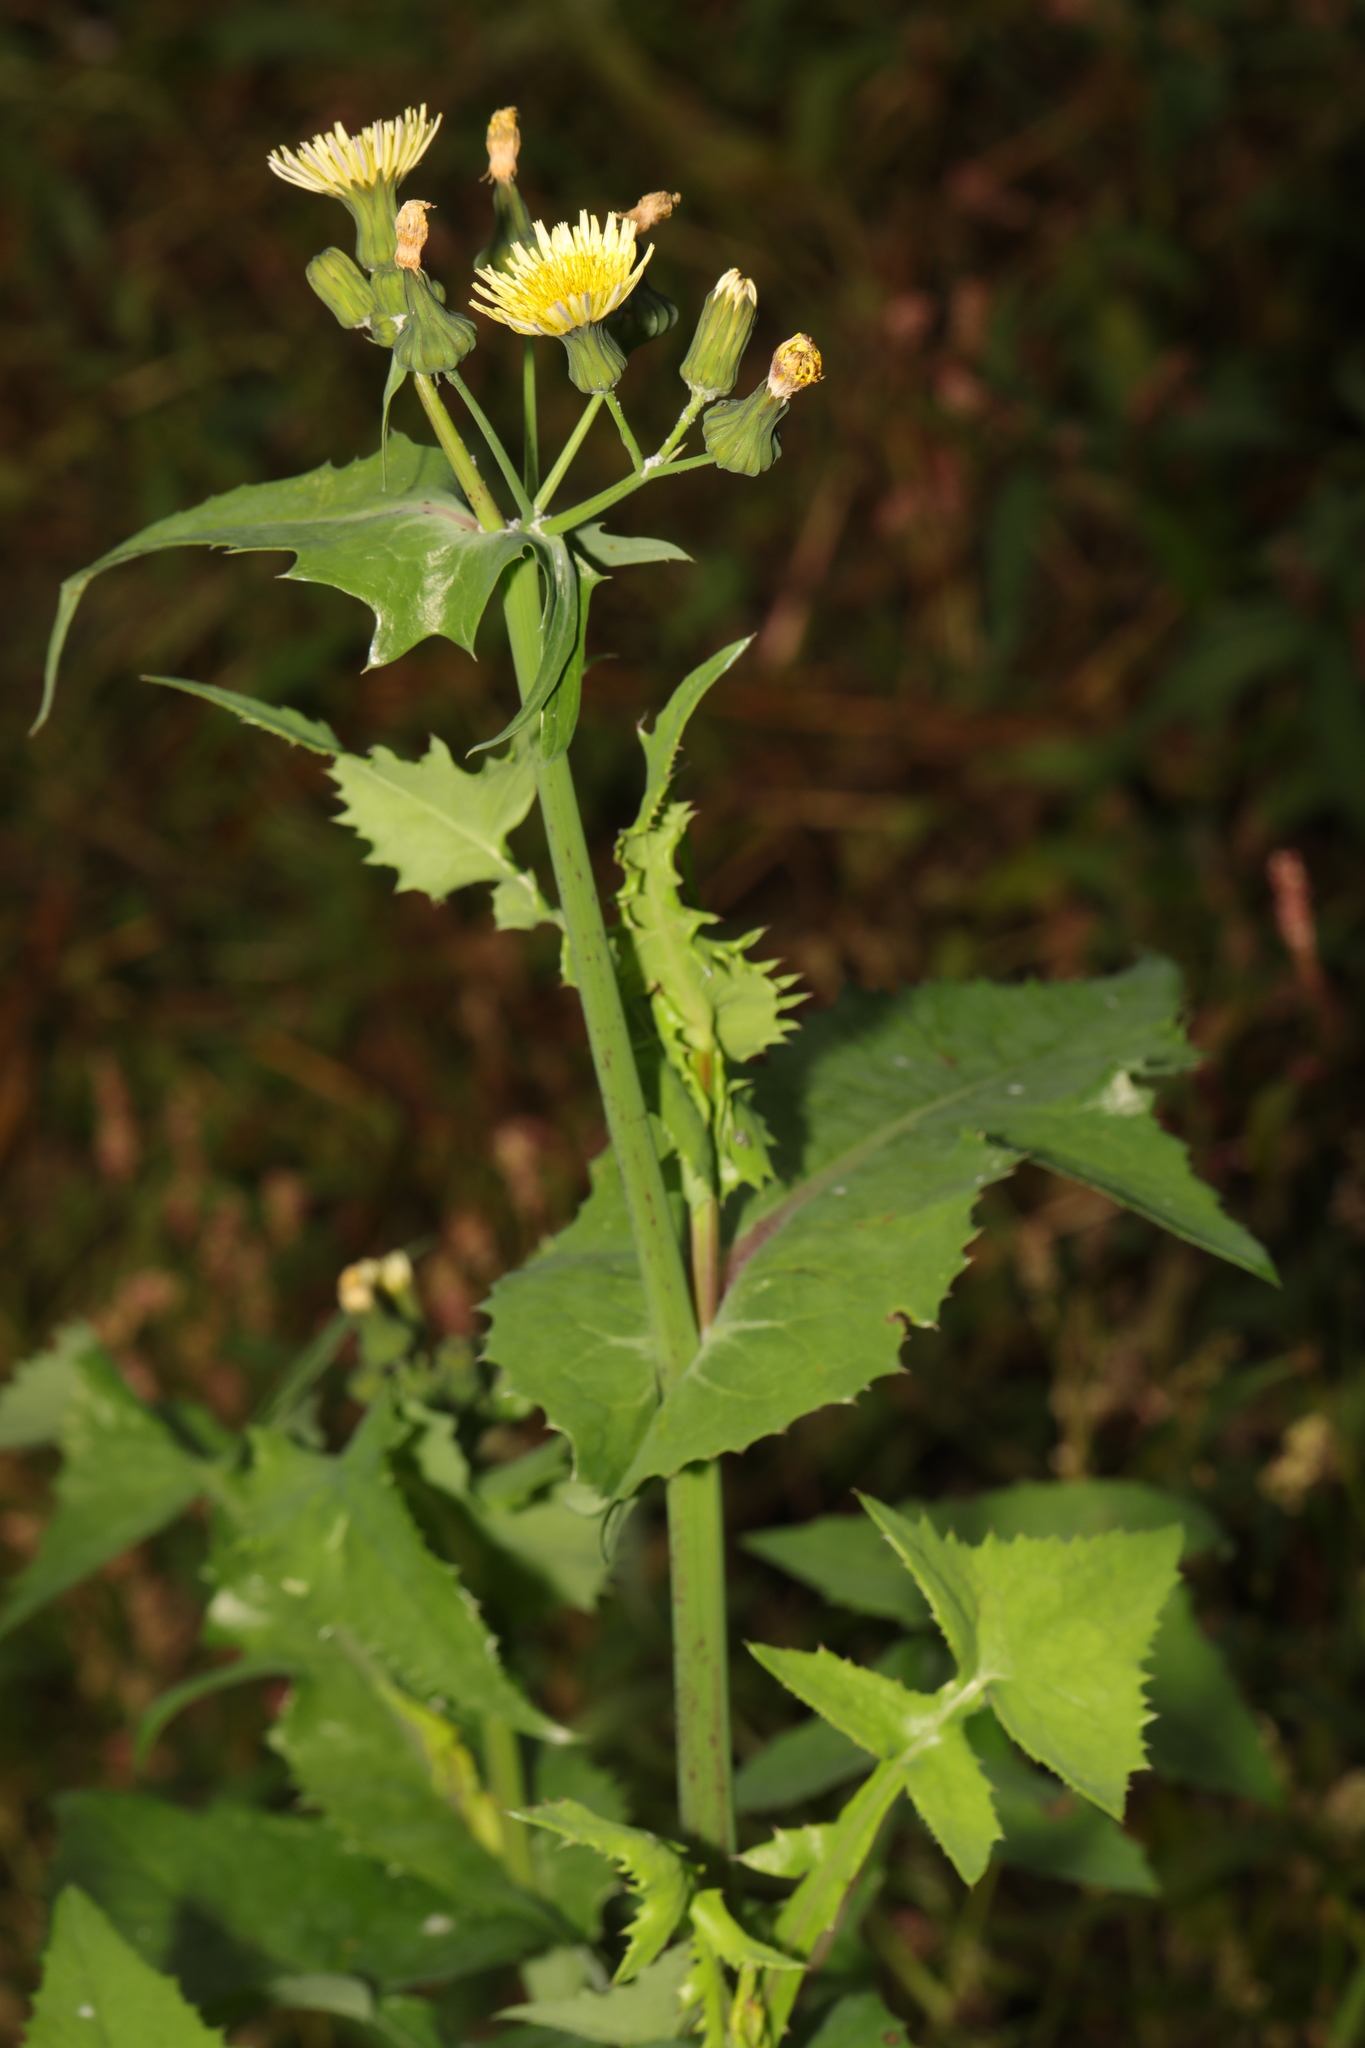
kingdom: Plantae
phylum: Tracheophyta
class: Magnoliopsida
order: Asterales
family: Asteraceae
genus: Sonchus
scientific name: Sonchus oleraceus
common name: Common sowthistle
